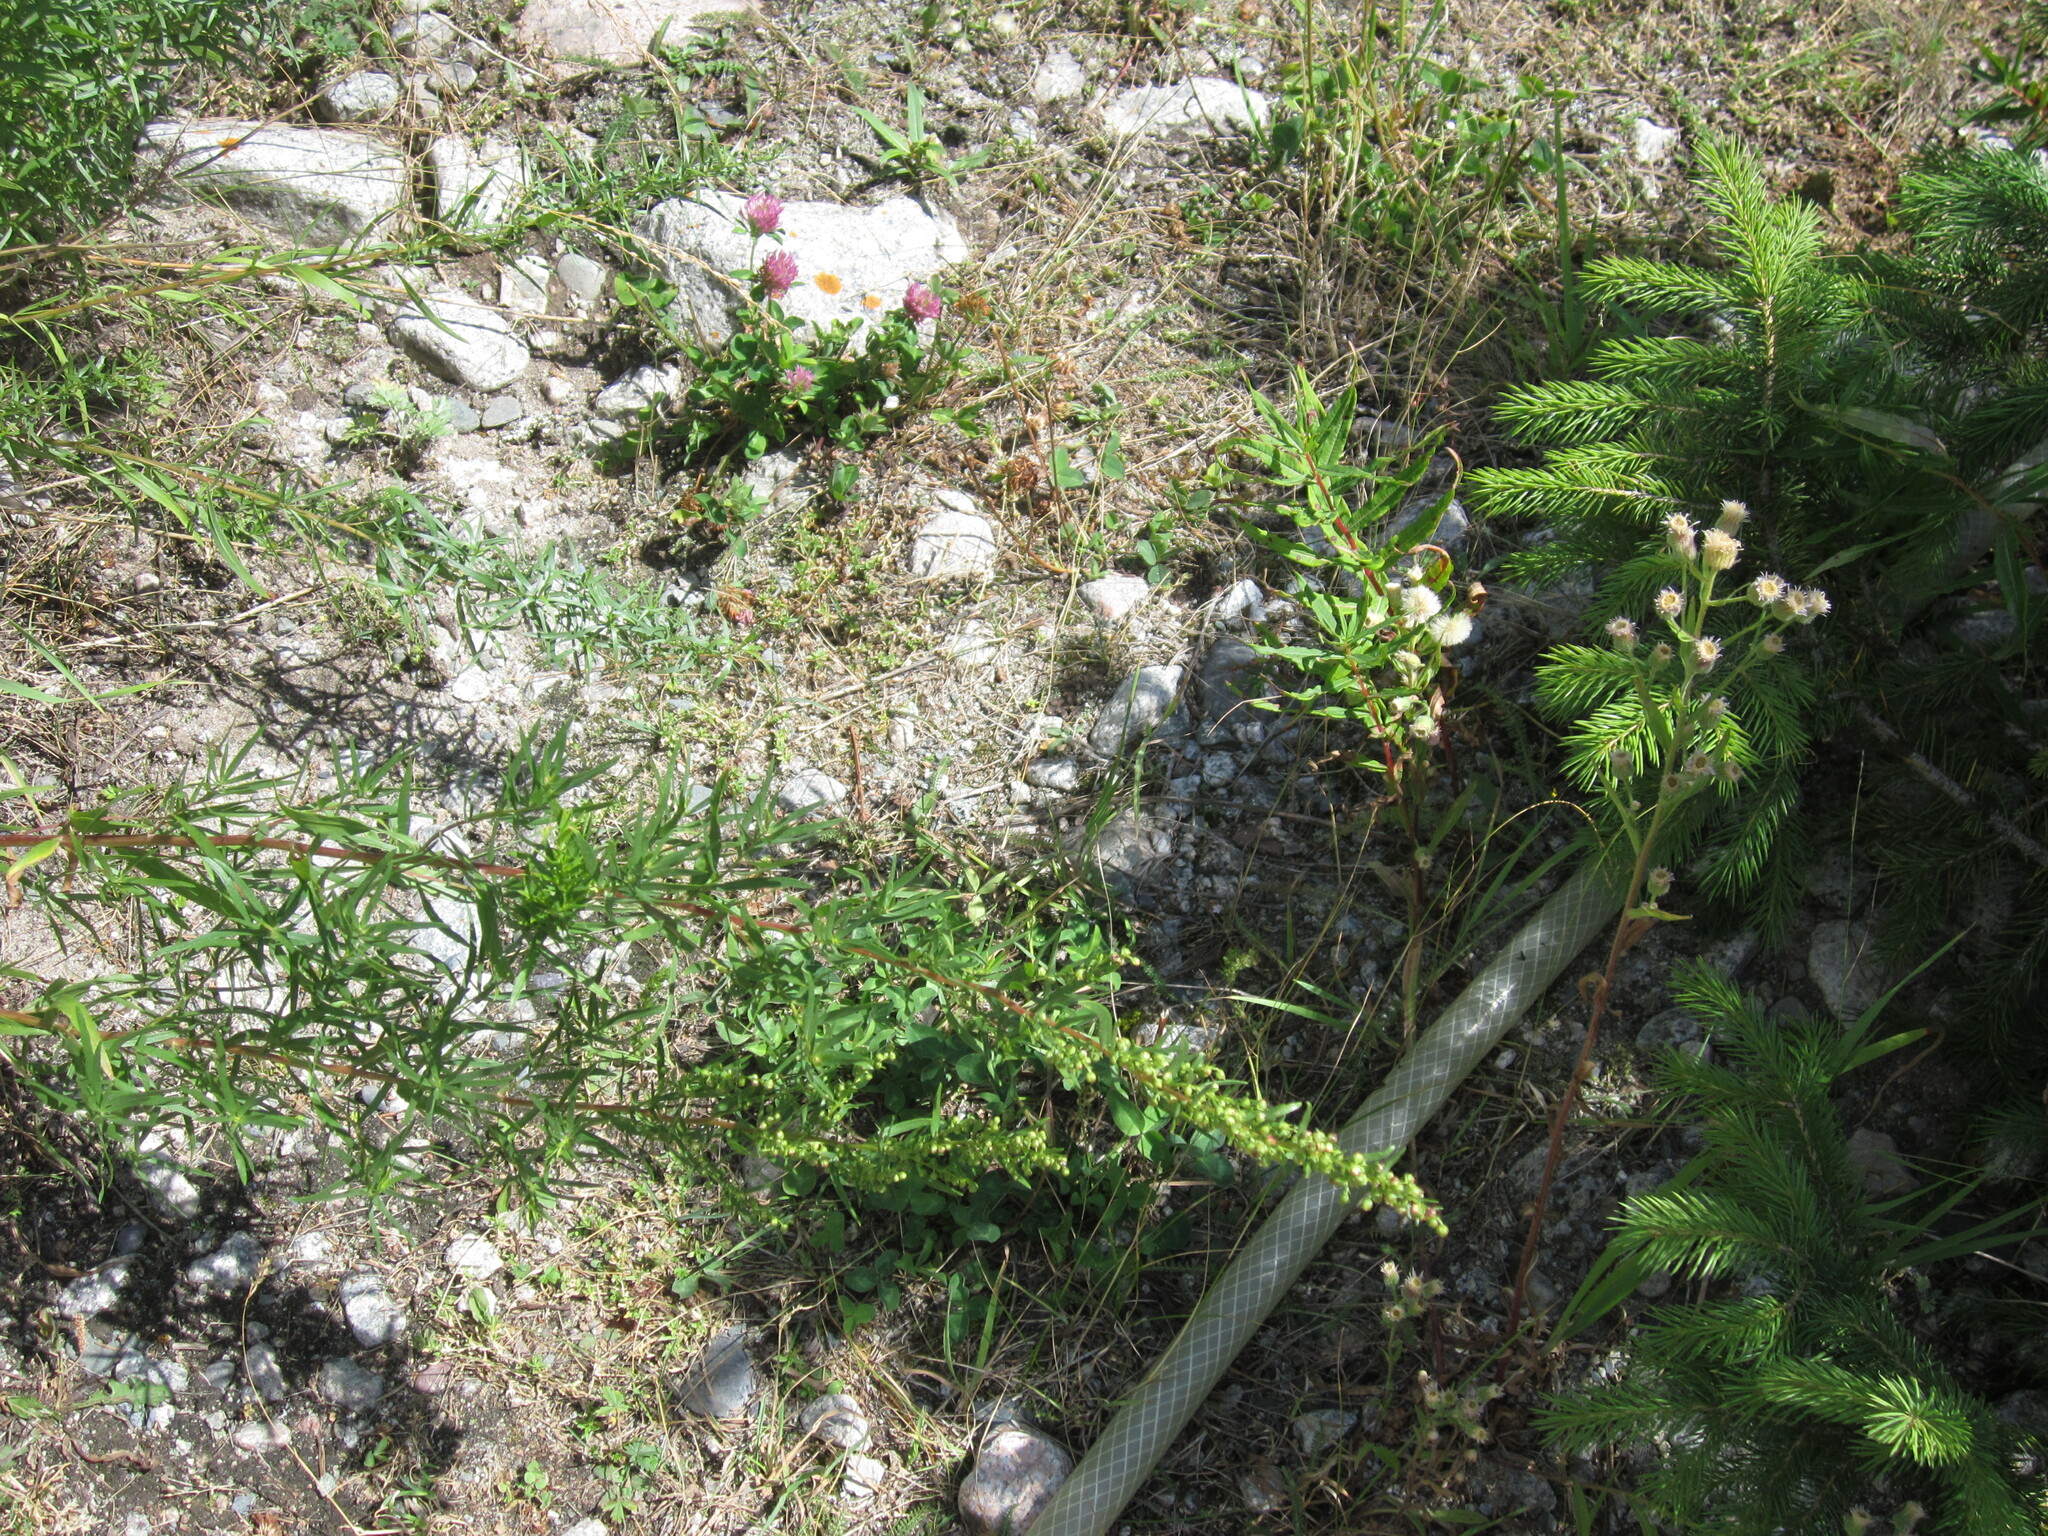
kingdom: Plantae
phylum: Tracheophyta
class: Magnoliopsida
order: Fabales
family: Fabaceae
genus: Trifolium
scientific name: Trifolium pratense
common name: Red clover
